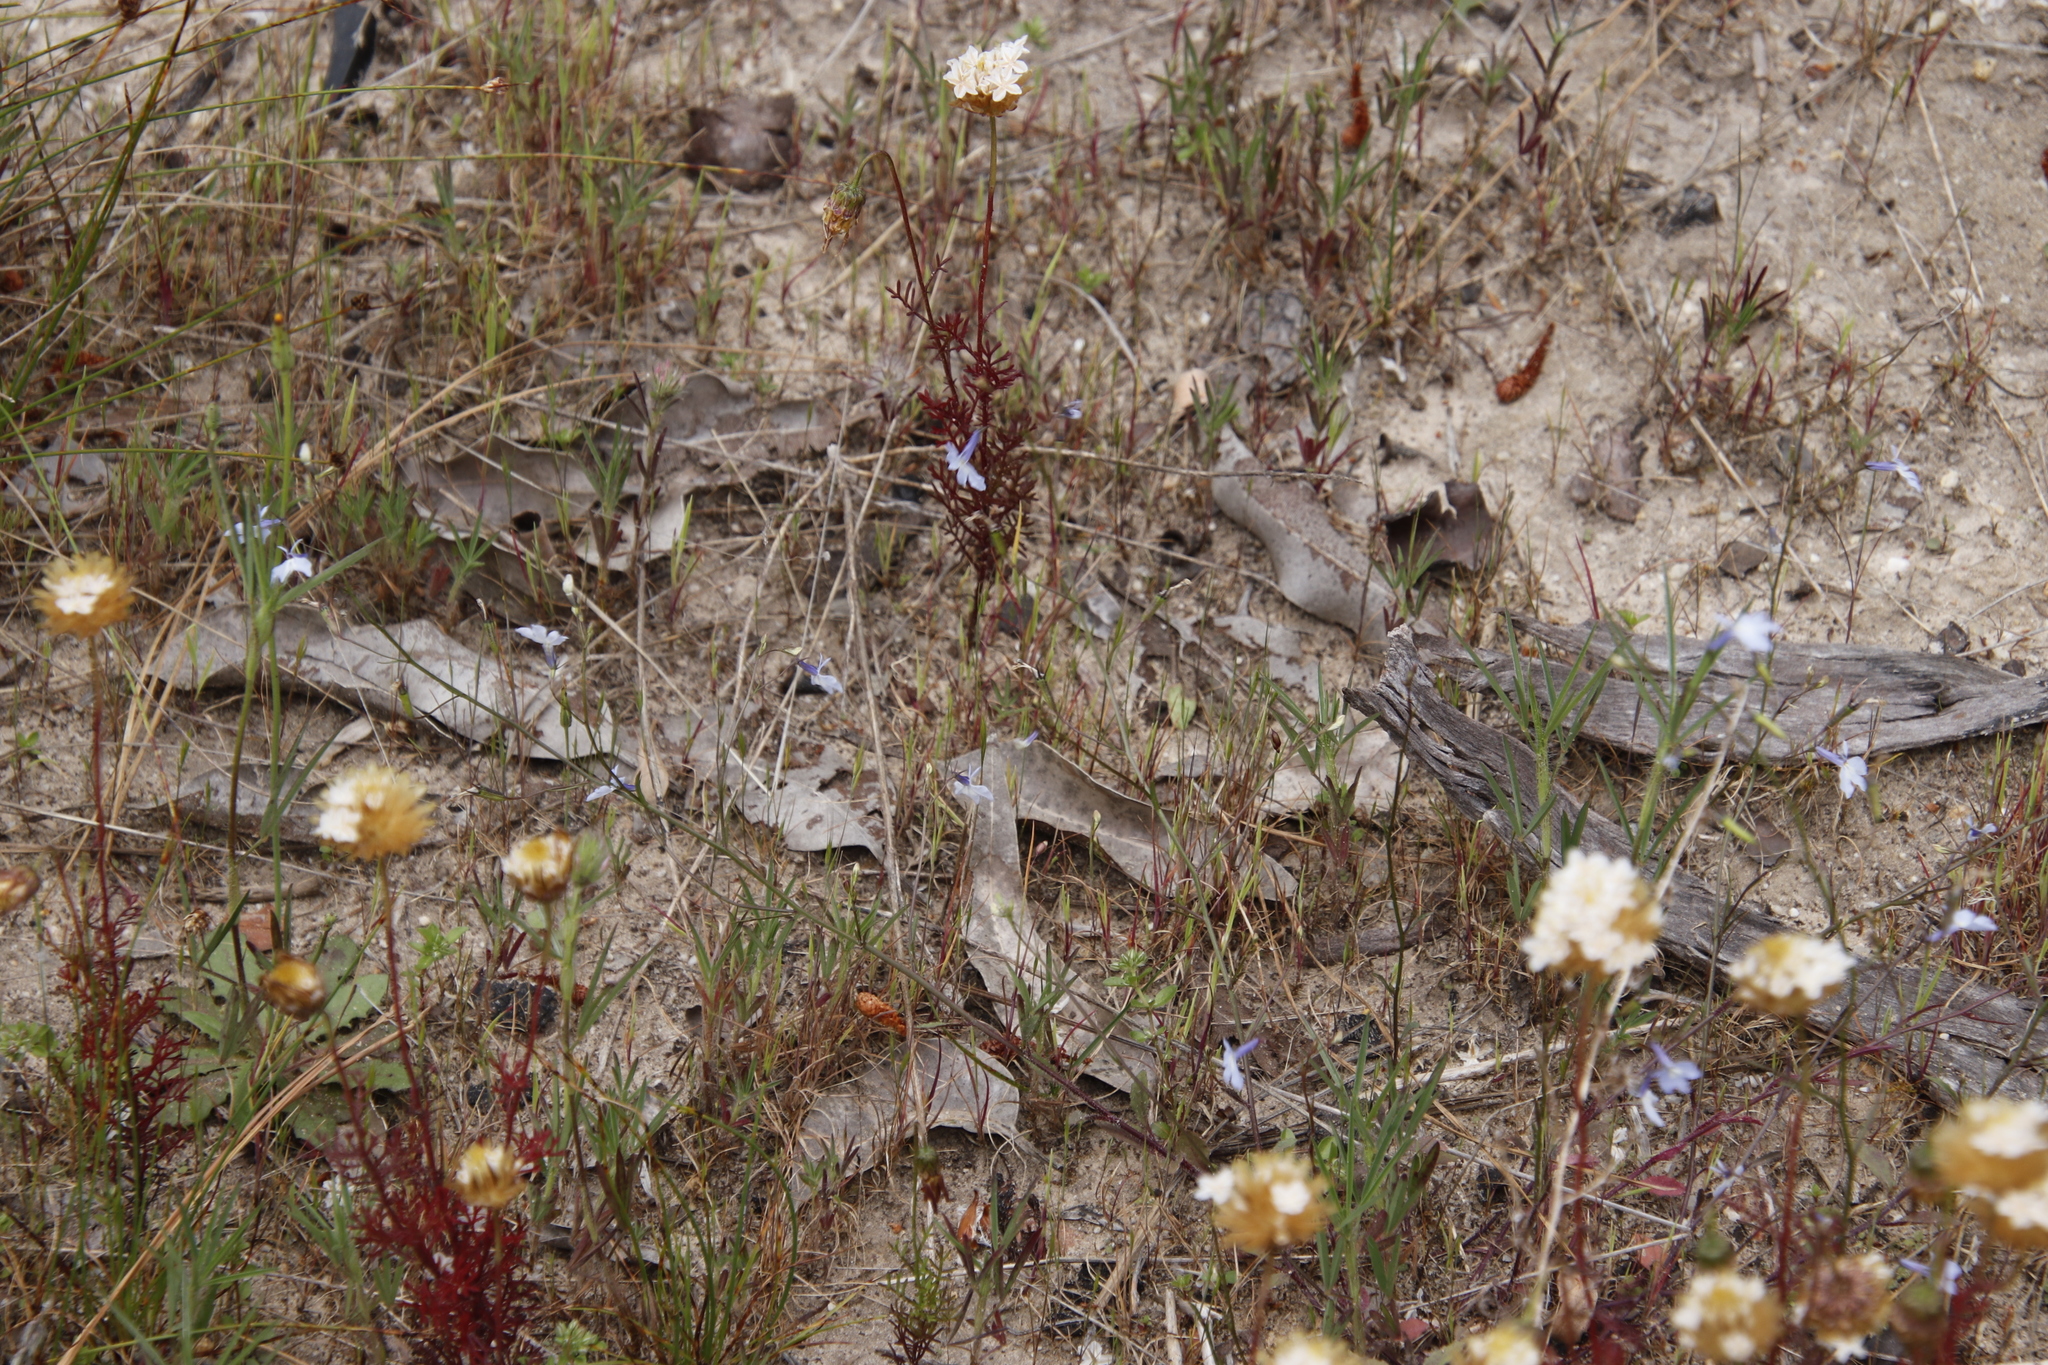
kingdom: Plantae
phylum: Tracheophyta
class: Magnoliopsida
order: Asterales
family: Campanulaceae
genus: Lobelia
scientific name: Lobelia erinus
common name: Edging lobelia
